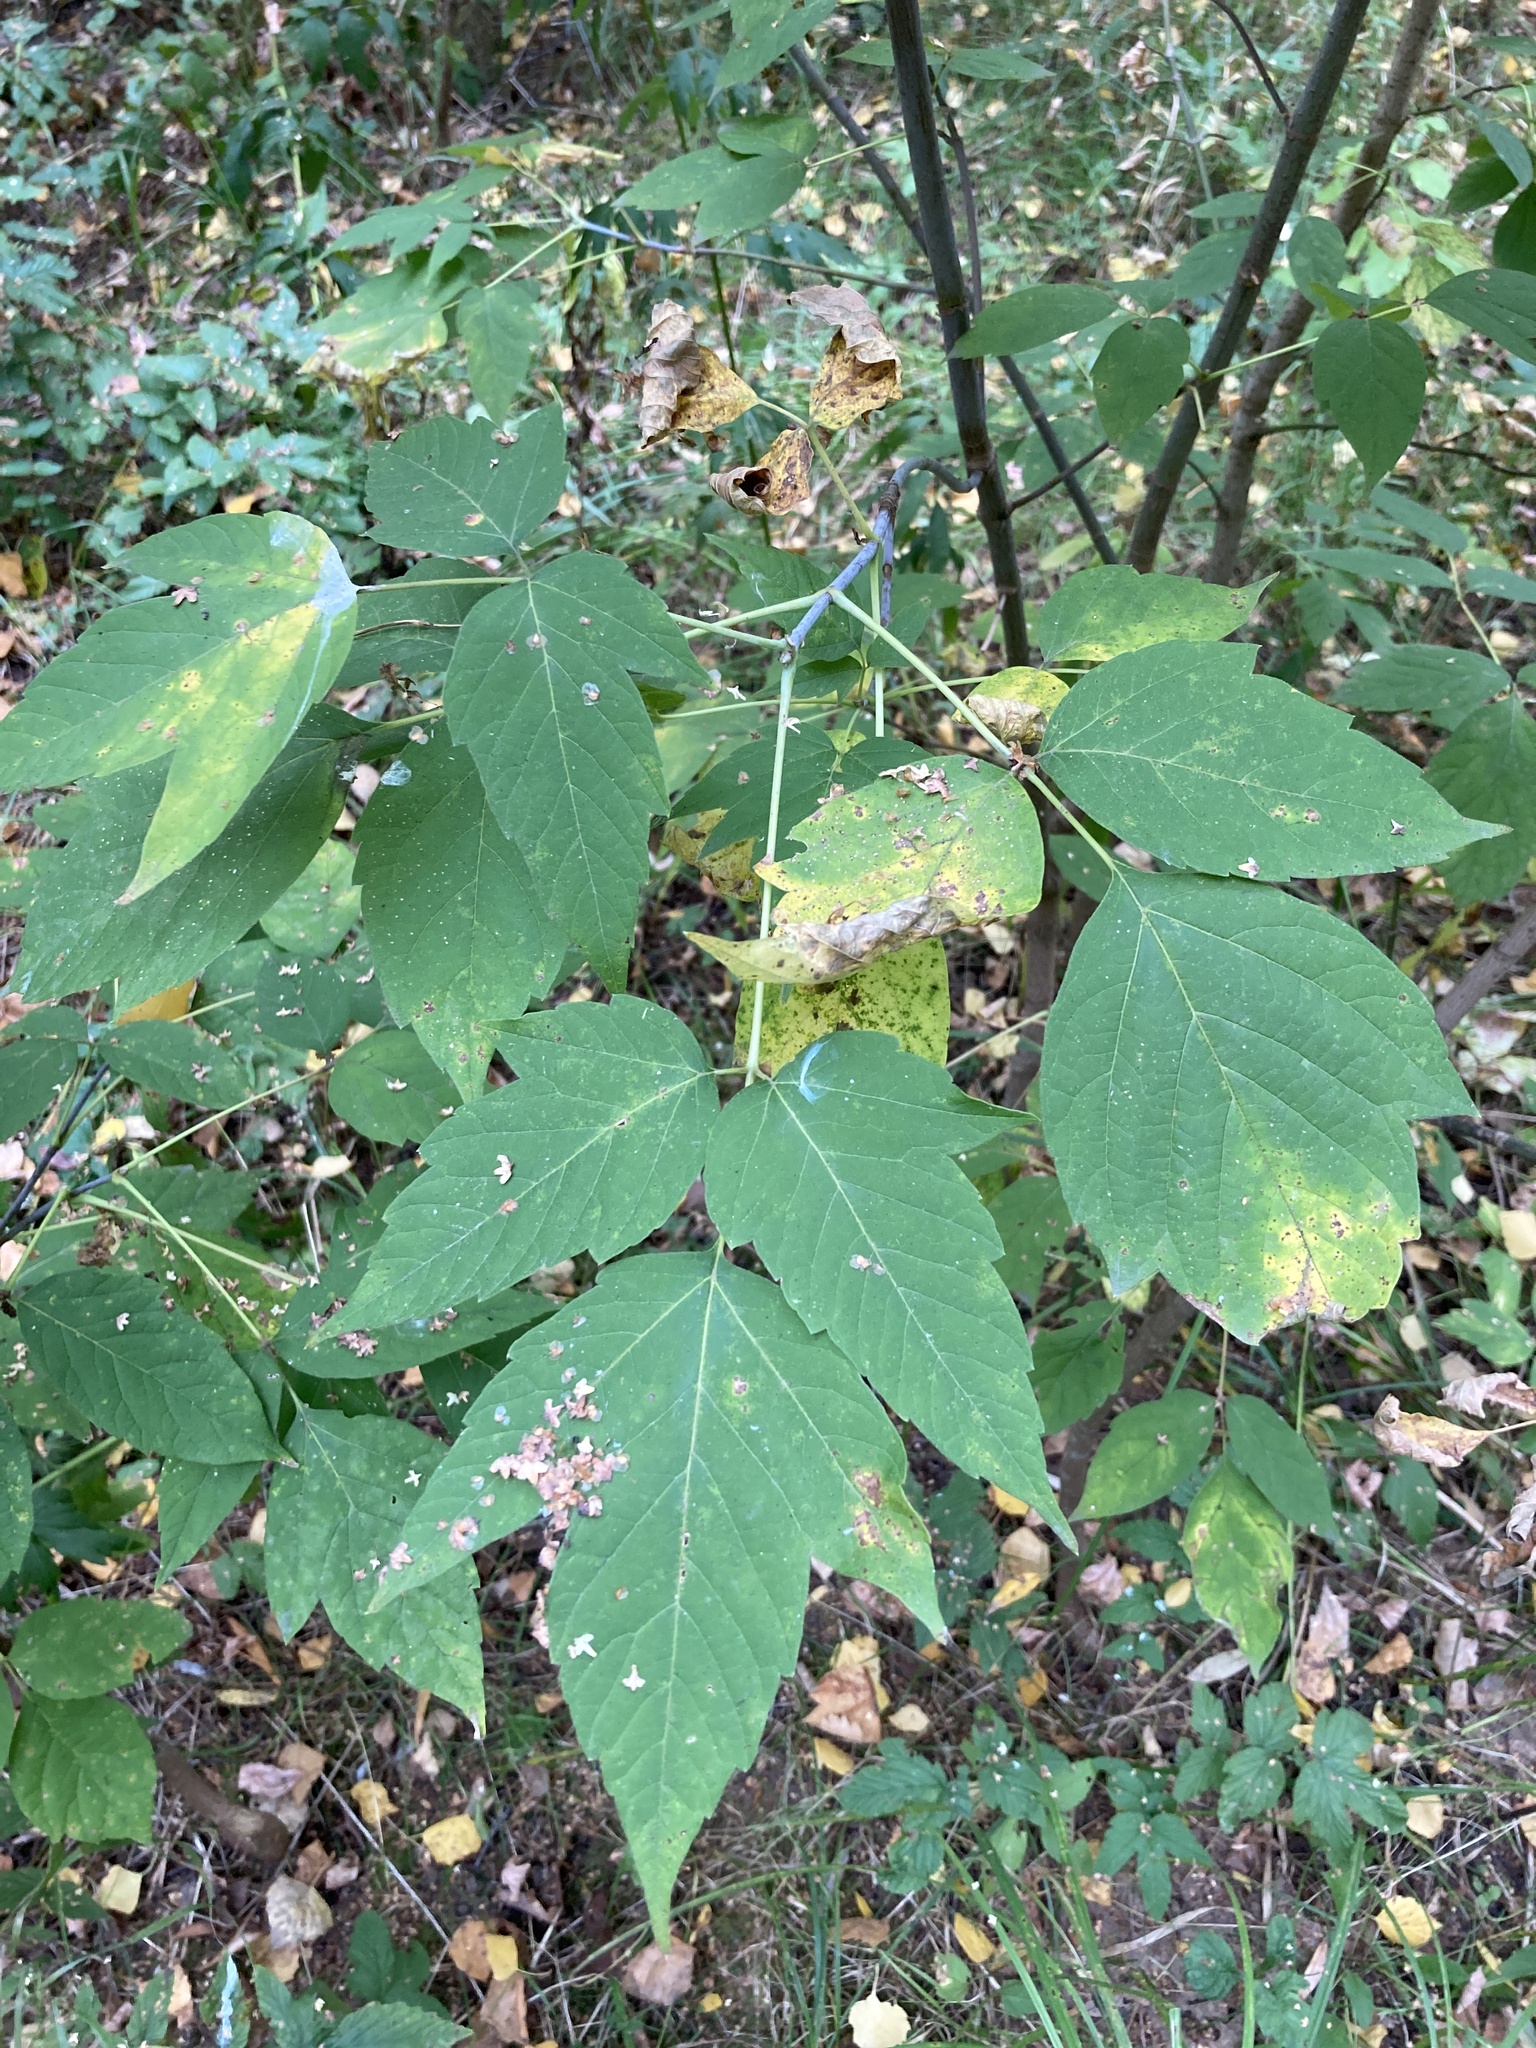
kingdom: Plantae
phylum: Tracheophyta
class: Magnoliopsida
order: Sapindales
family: Sapindaceae
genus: Acer
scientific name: Acer negundo
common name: Ashleaf maple
